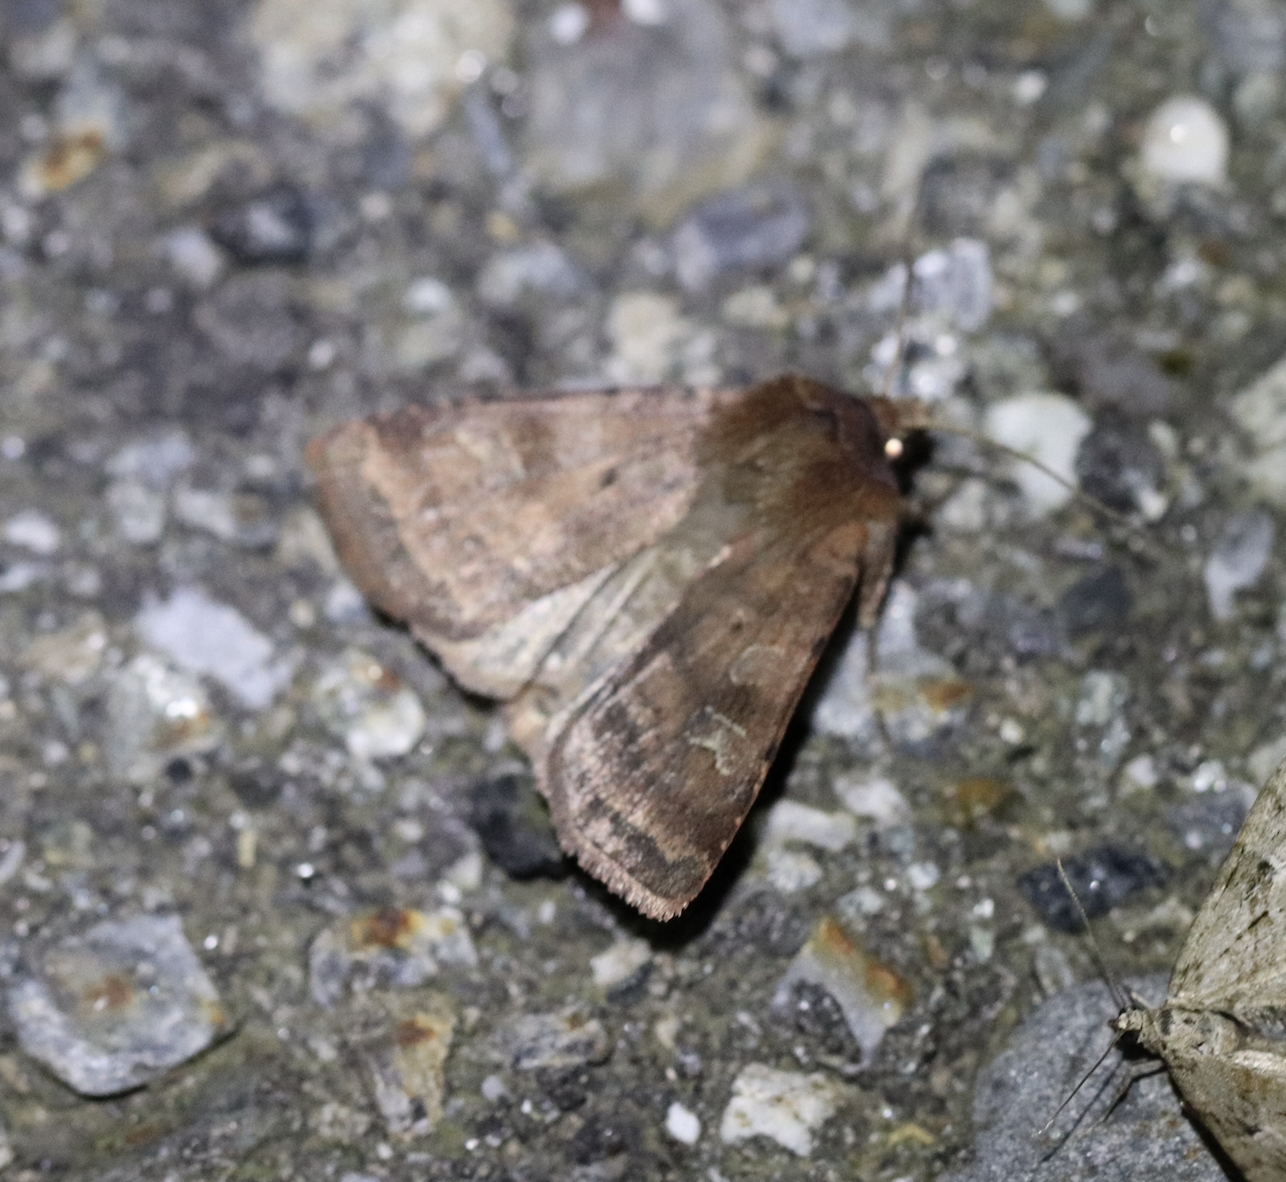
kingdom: Animalia
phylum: Arthropoda
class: Insecta
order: Lepidoptera
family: Noctuidae
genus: Xestia
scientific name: Xestia xanthographa
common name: Square-spot rustic
